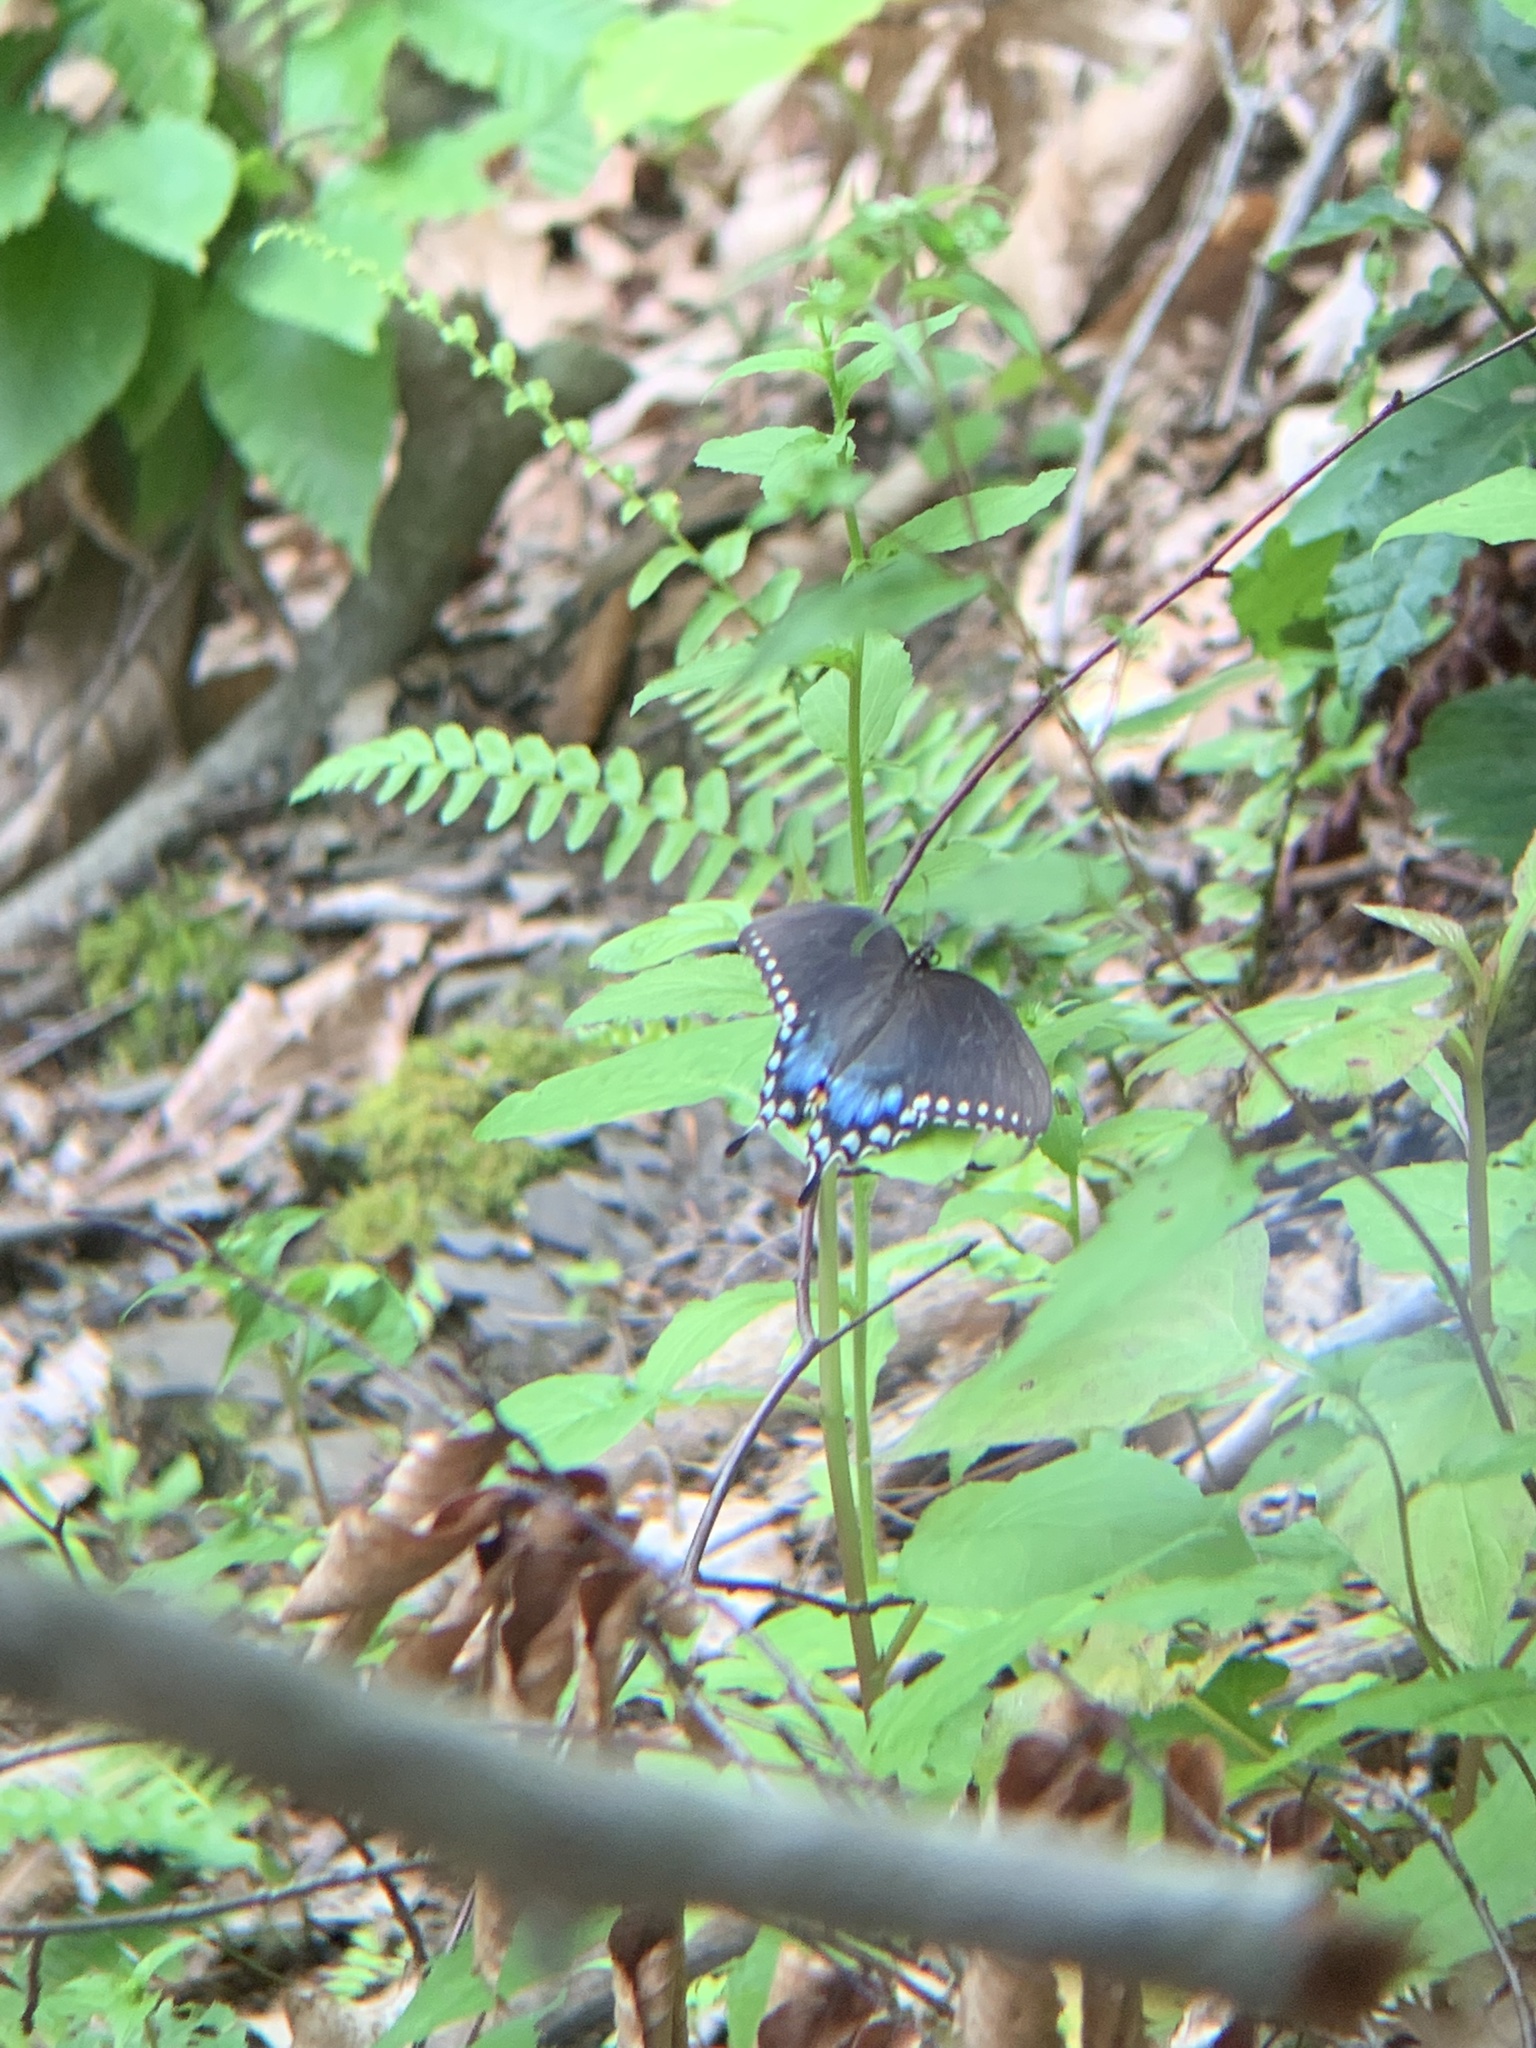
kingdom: Animalia
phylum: Arthropoda
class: Insecta
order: Lepidoptera
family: Papilionidae
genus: Papilio
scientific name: Papilio troilus
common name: Spicebush swallowtail
